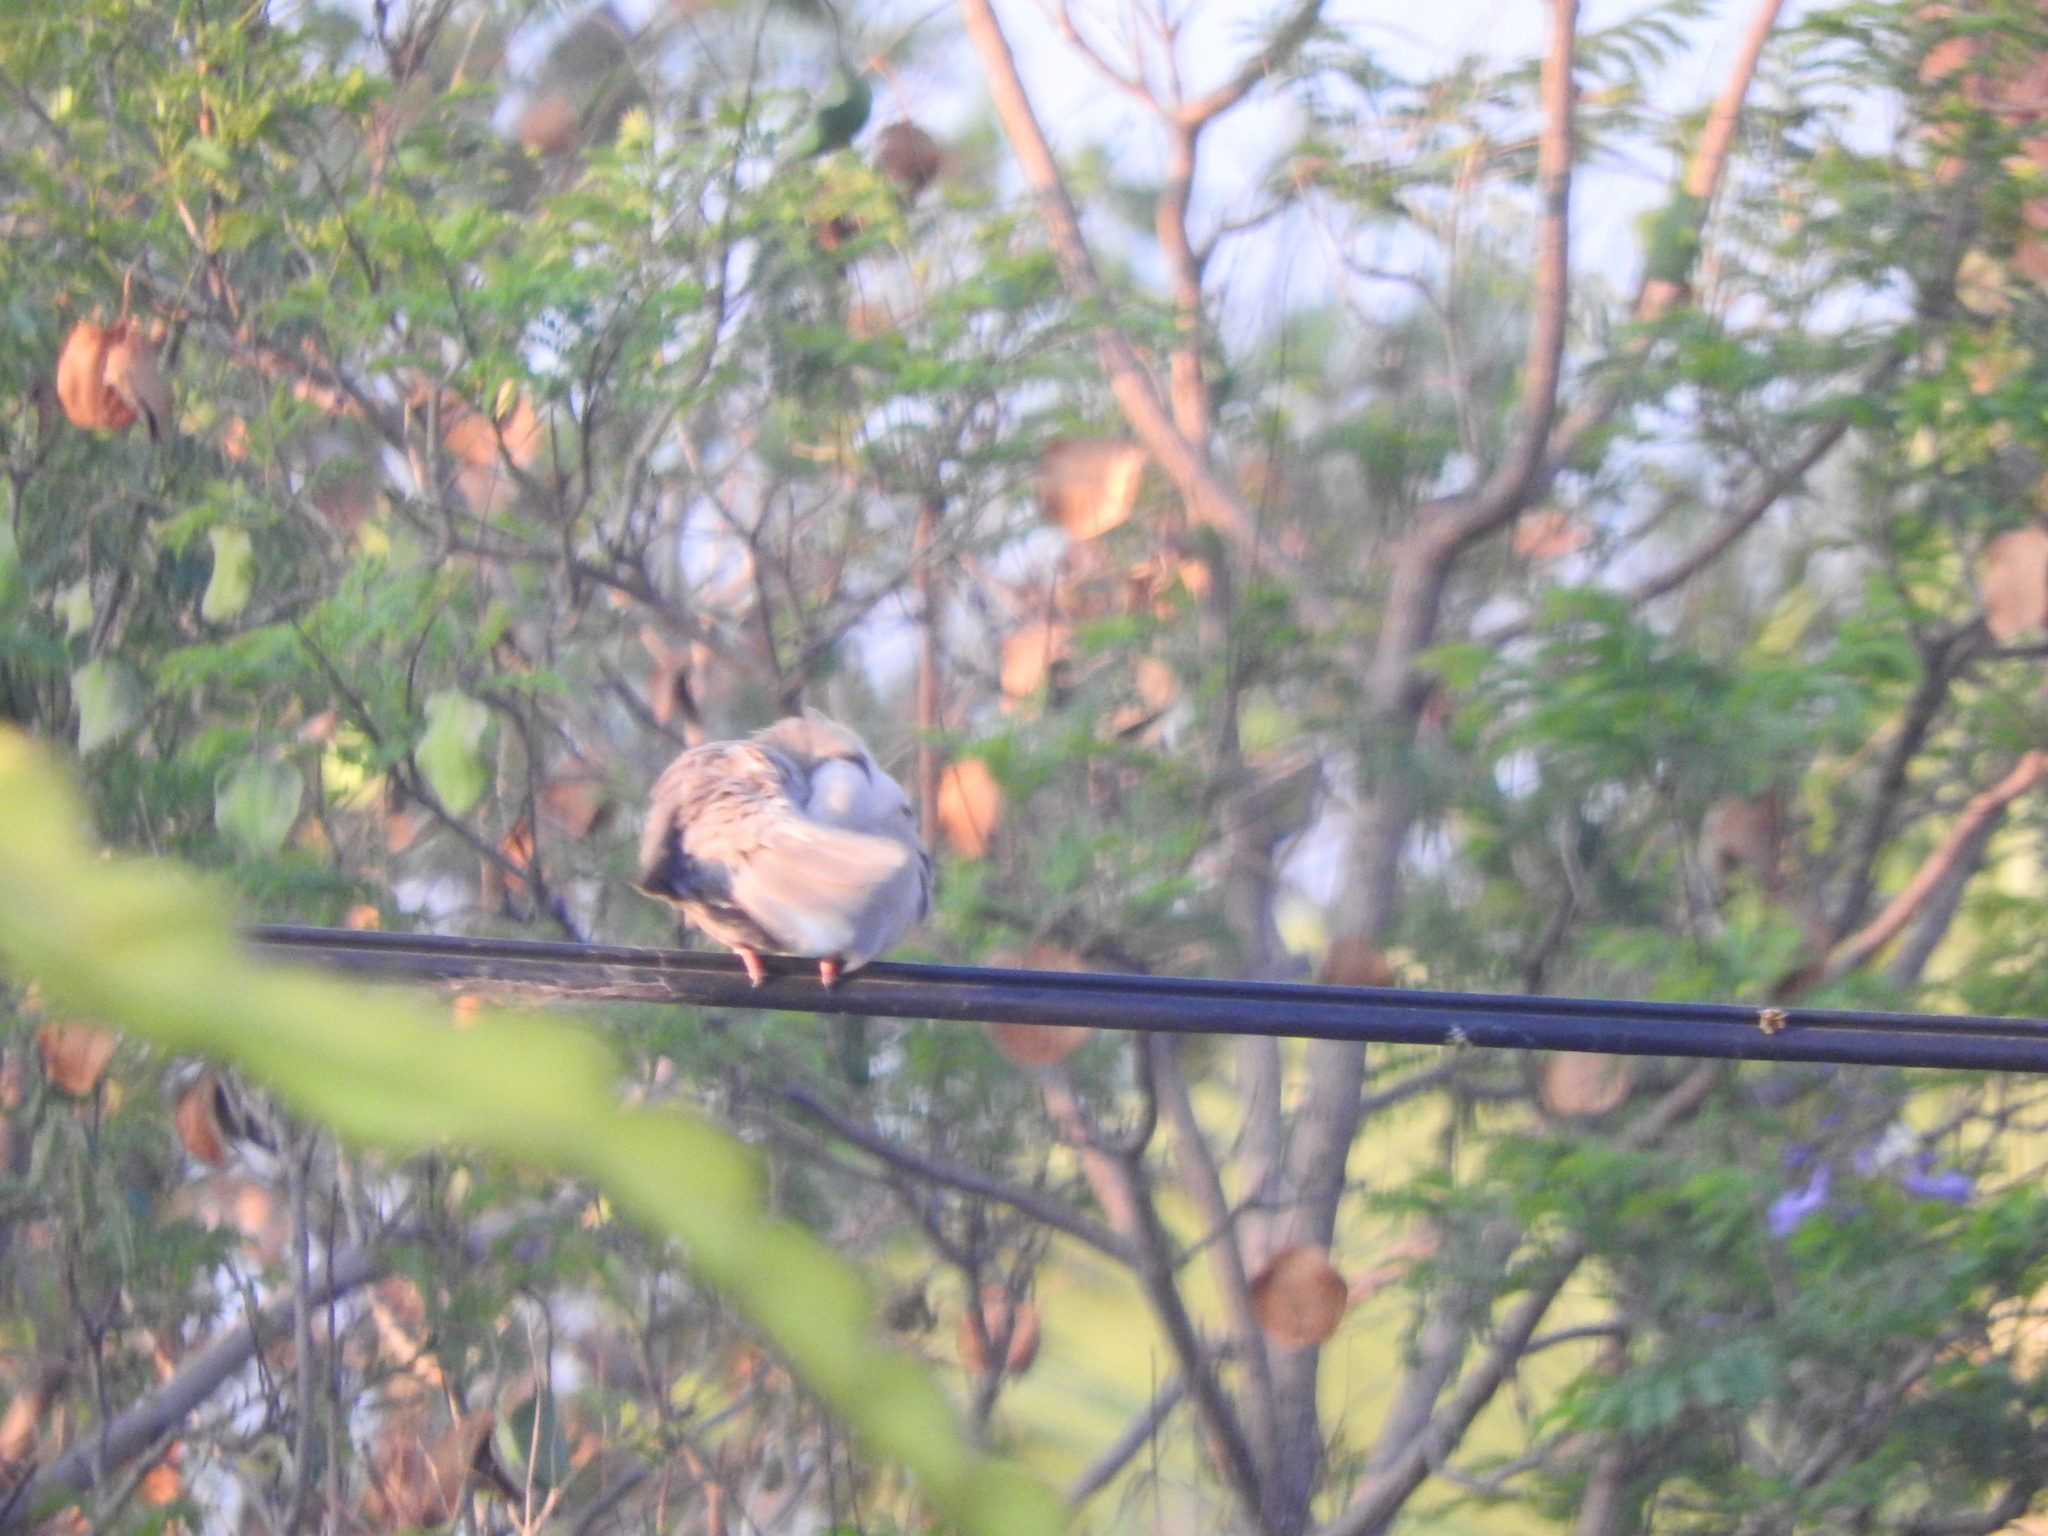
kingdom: Animalia
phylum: Chordata
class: Aves
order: Columbiformes
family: Columbidae
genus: Streptopelia
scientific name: Streptopelia decaocto
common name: Eurasian collared dove
